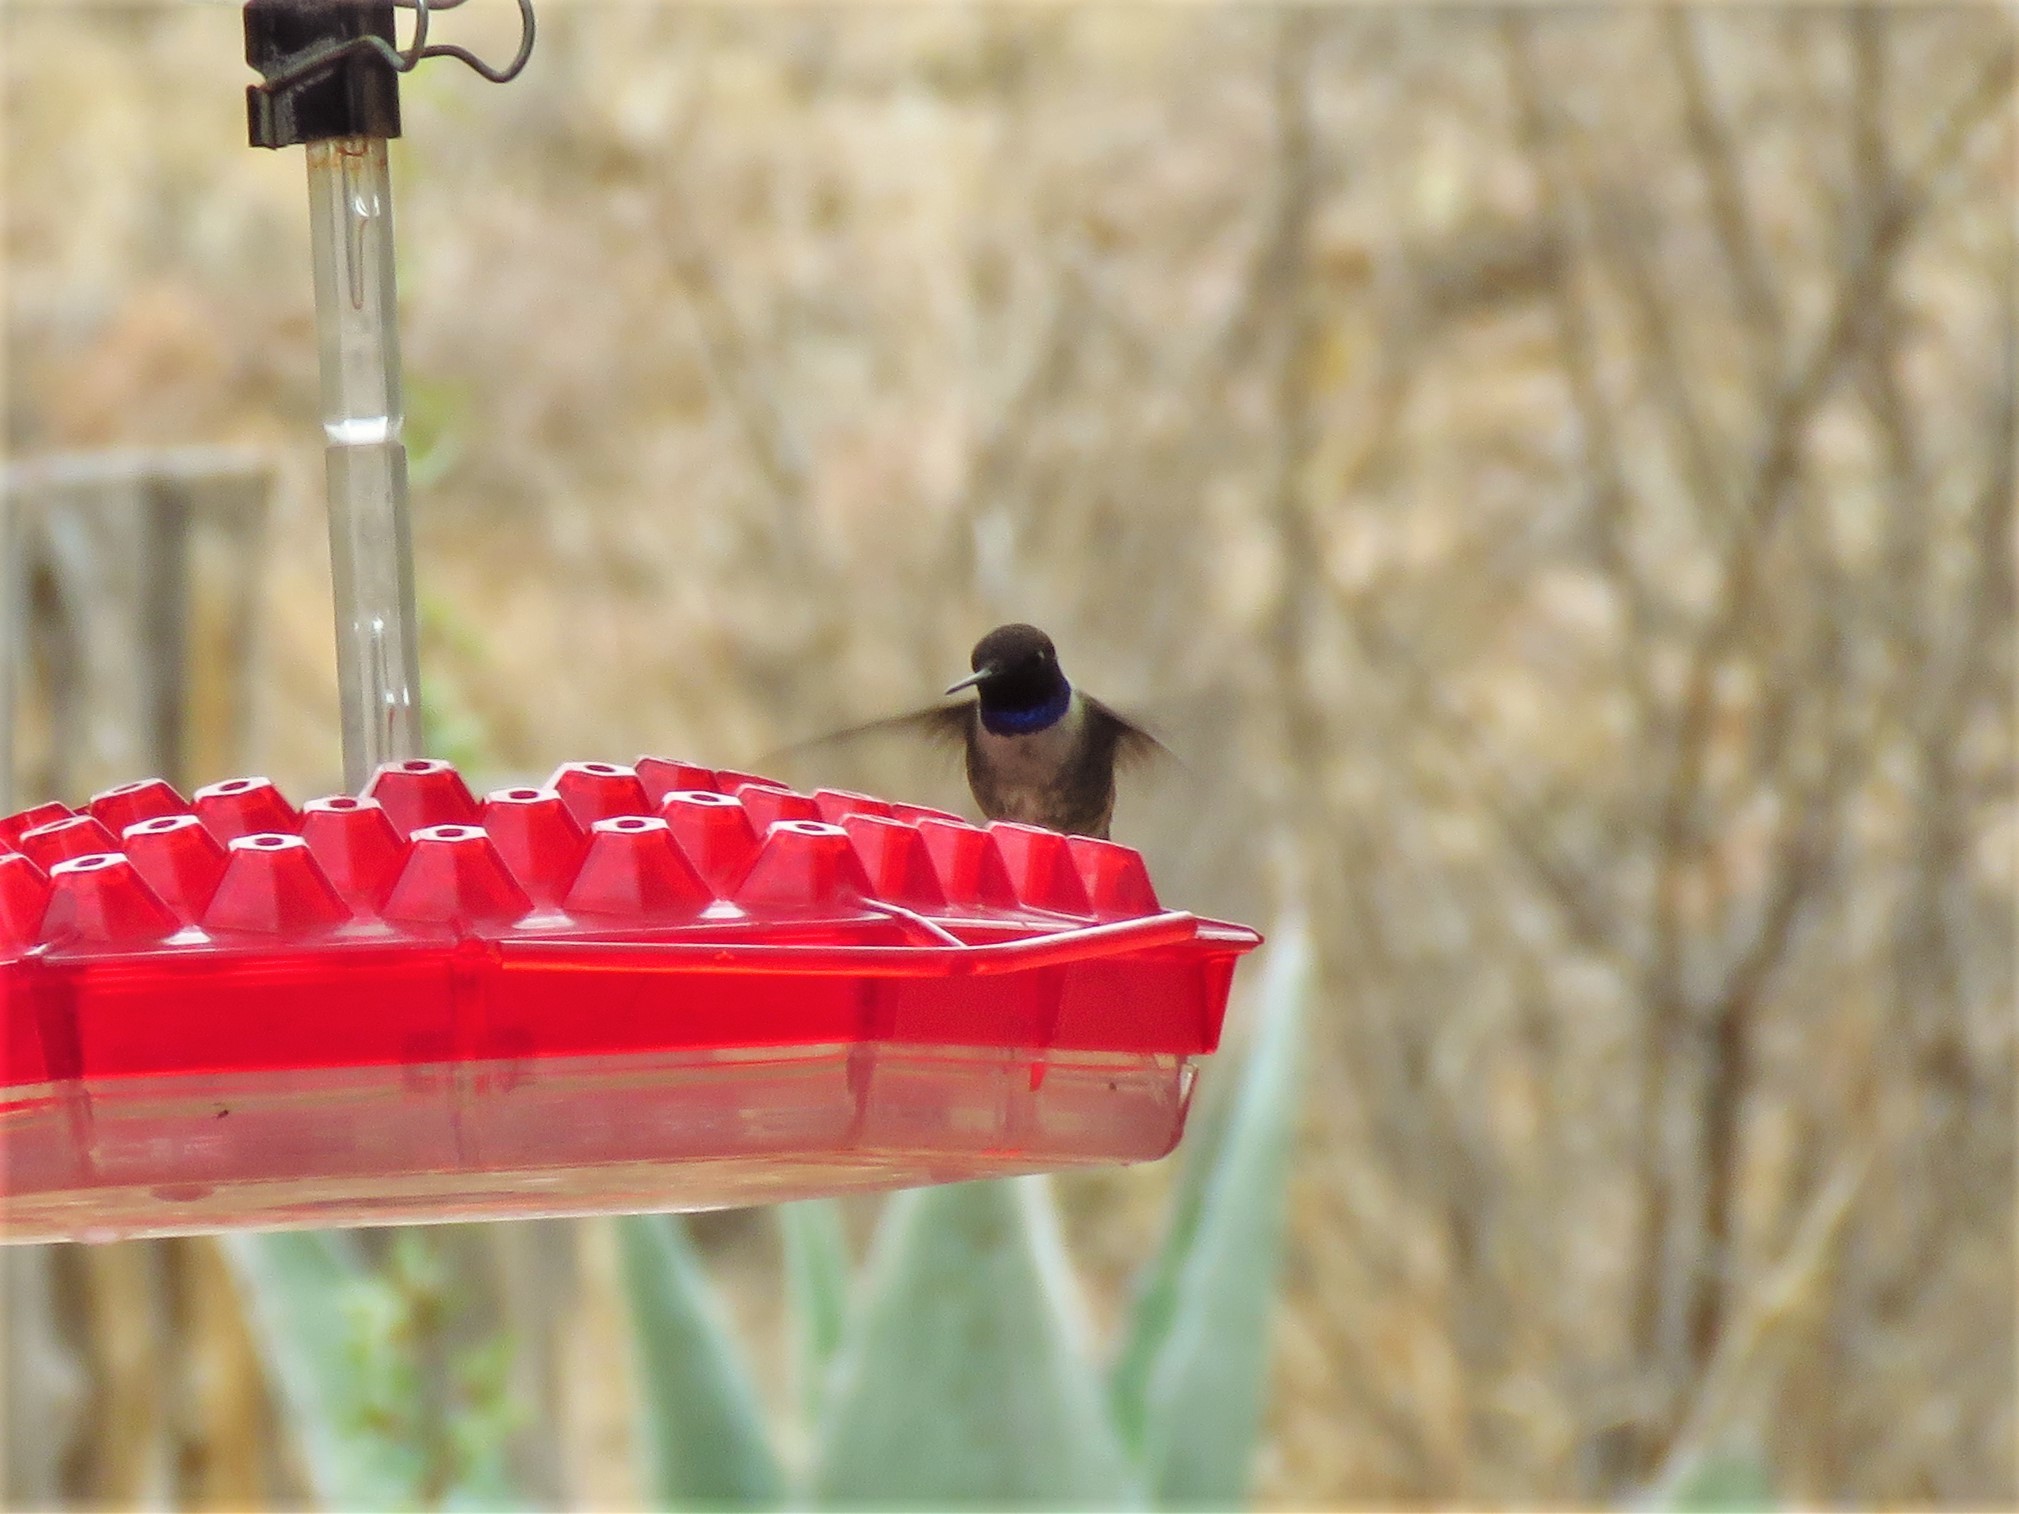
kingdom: Animalia
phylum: Chordata
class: Aves
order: Apodiformes
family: Trochilidae
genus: Archilochus
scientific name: Archilochus alexandri
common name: Black-chinned hummingbird
